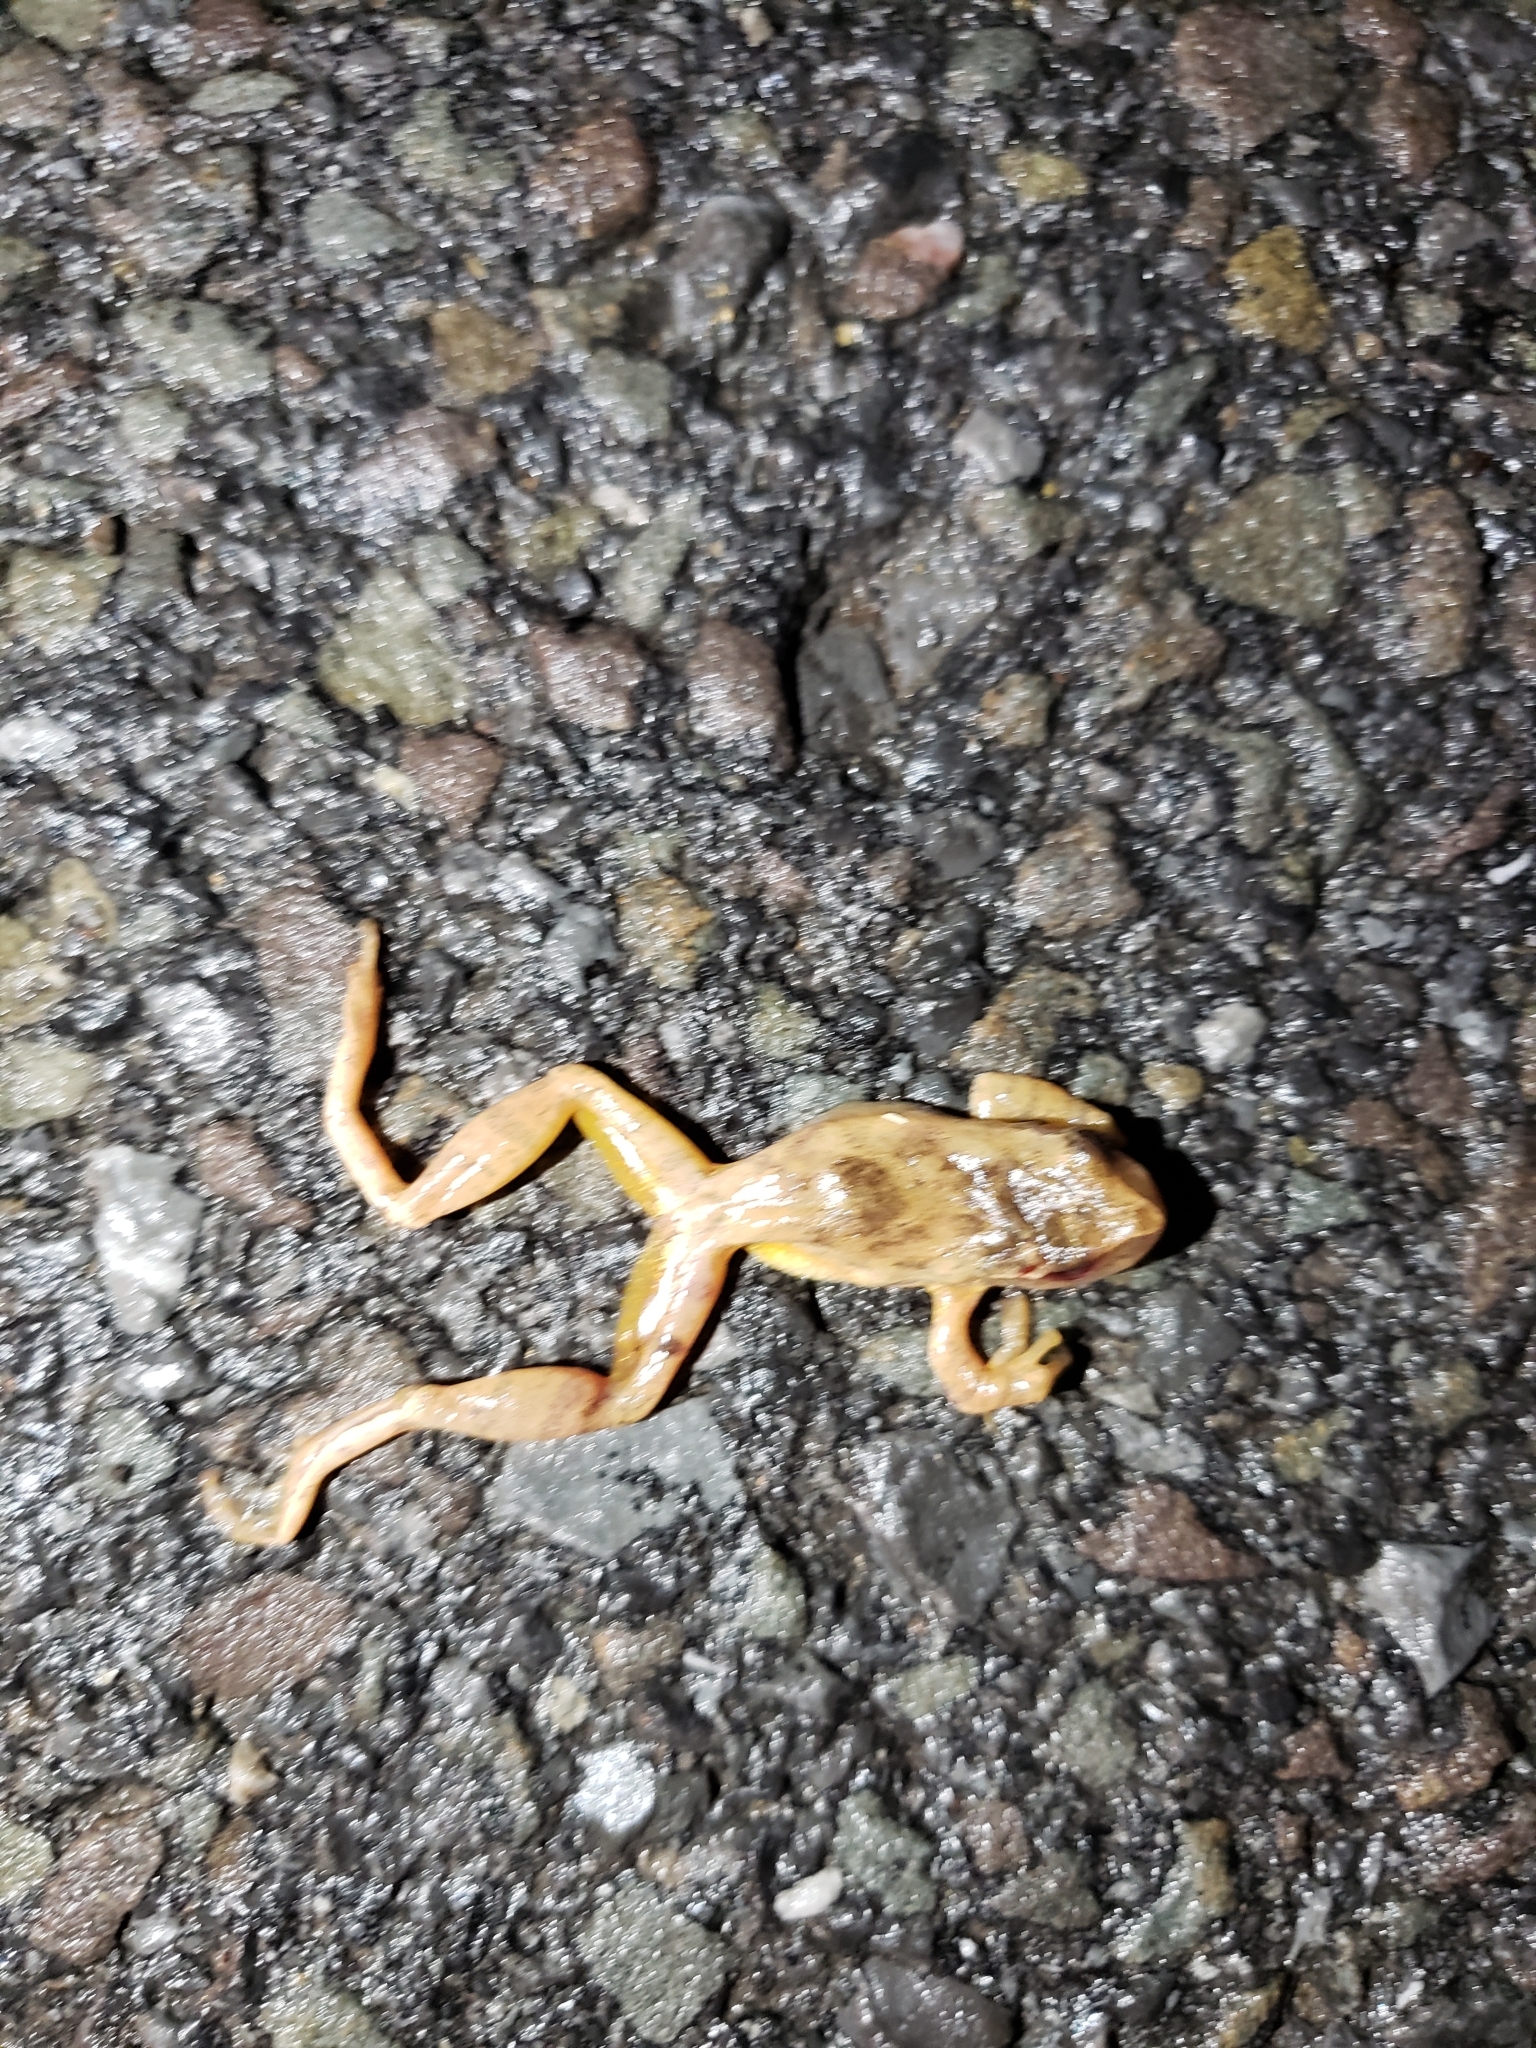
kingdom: Animalia
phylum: Chordata
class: Amphibia
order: Anura
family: Hylidae
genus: Pseudacris
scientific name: Pseudacris crucifer
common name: Spring peeper
